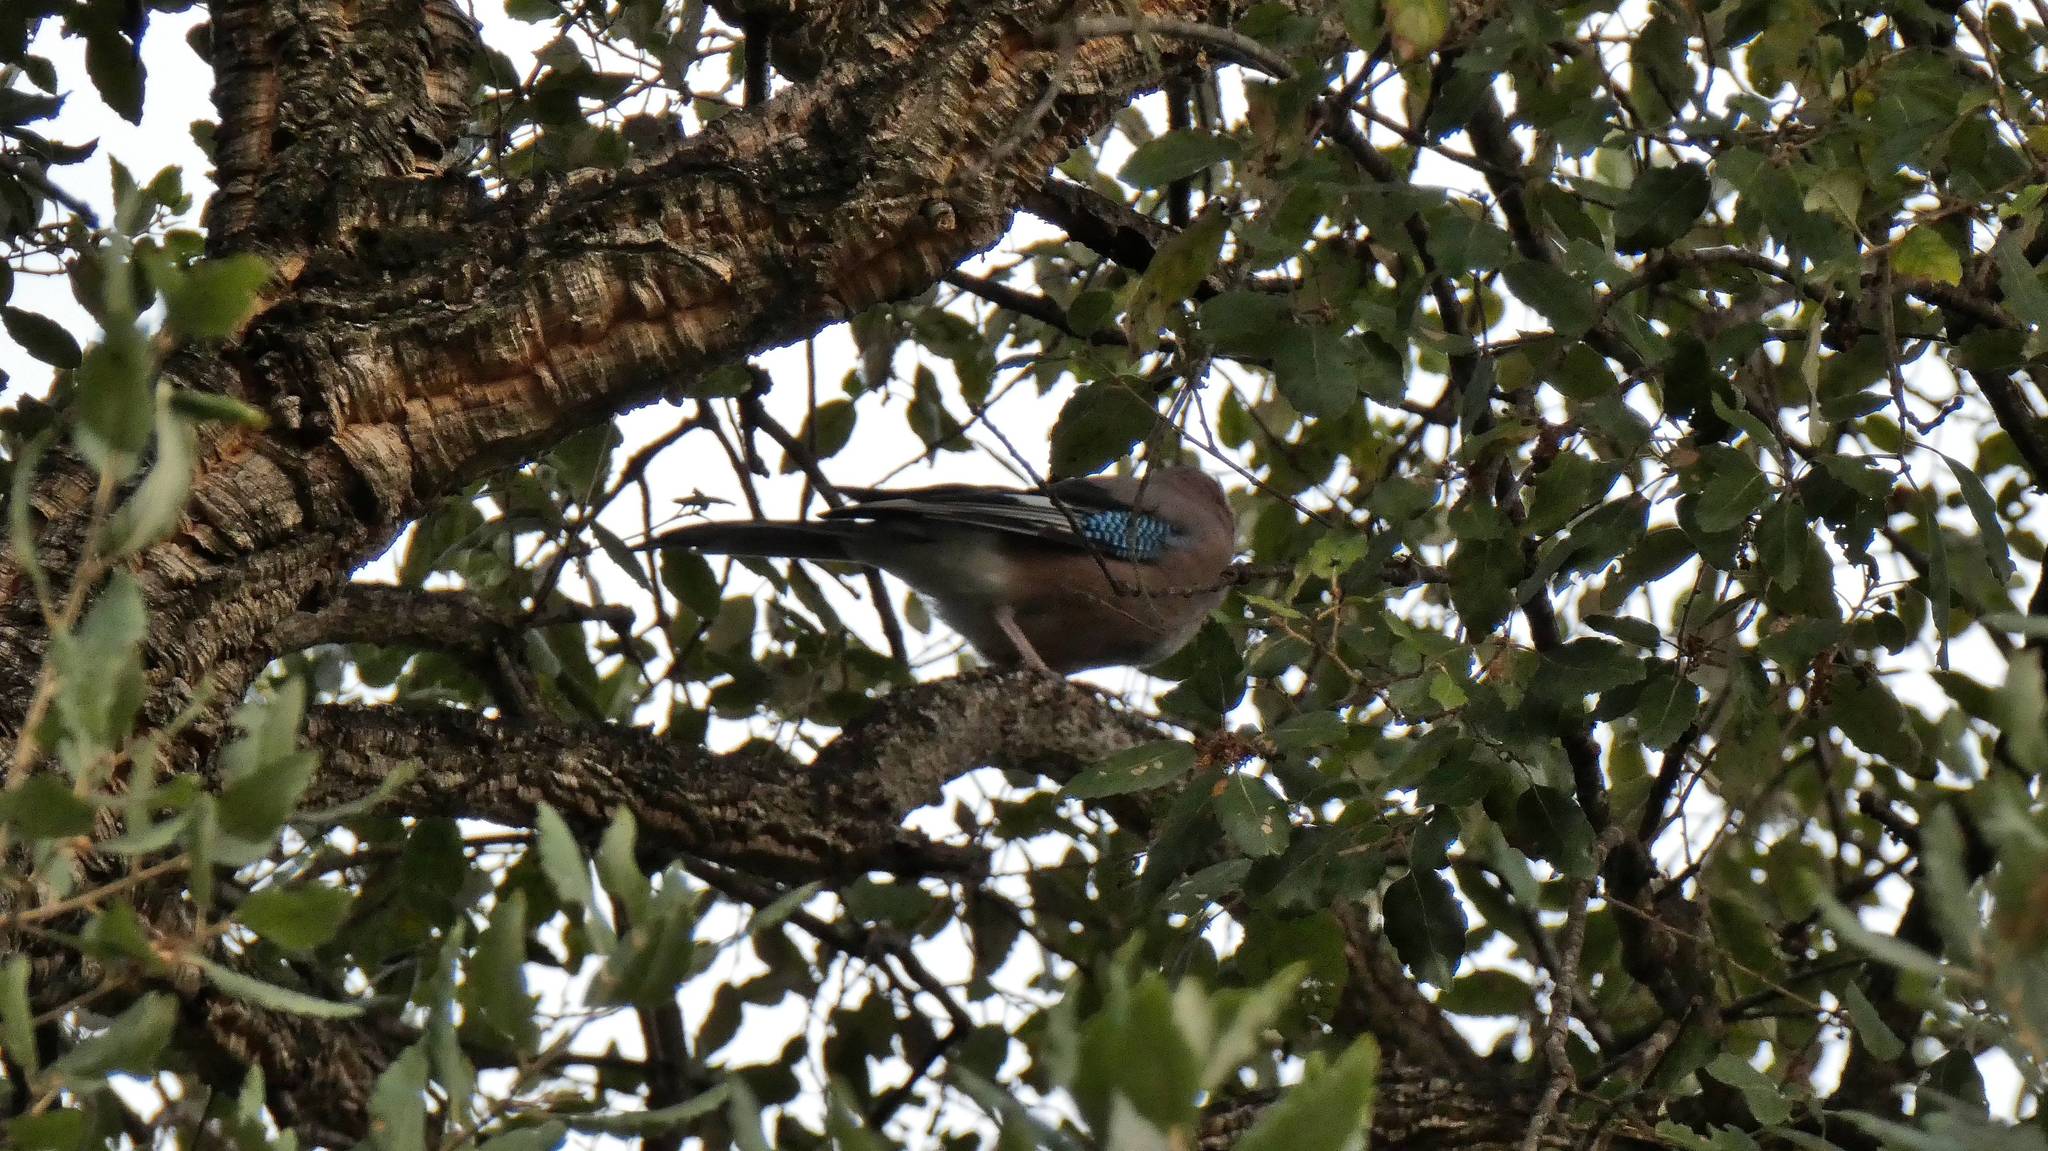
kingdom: Animalia
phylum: Chordata
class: Aves
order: Passeriformes
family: Corvidae
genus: Garrulus
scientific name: Garrulus glandarius
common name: Eurasian jay
